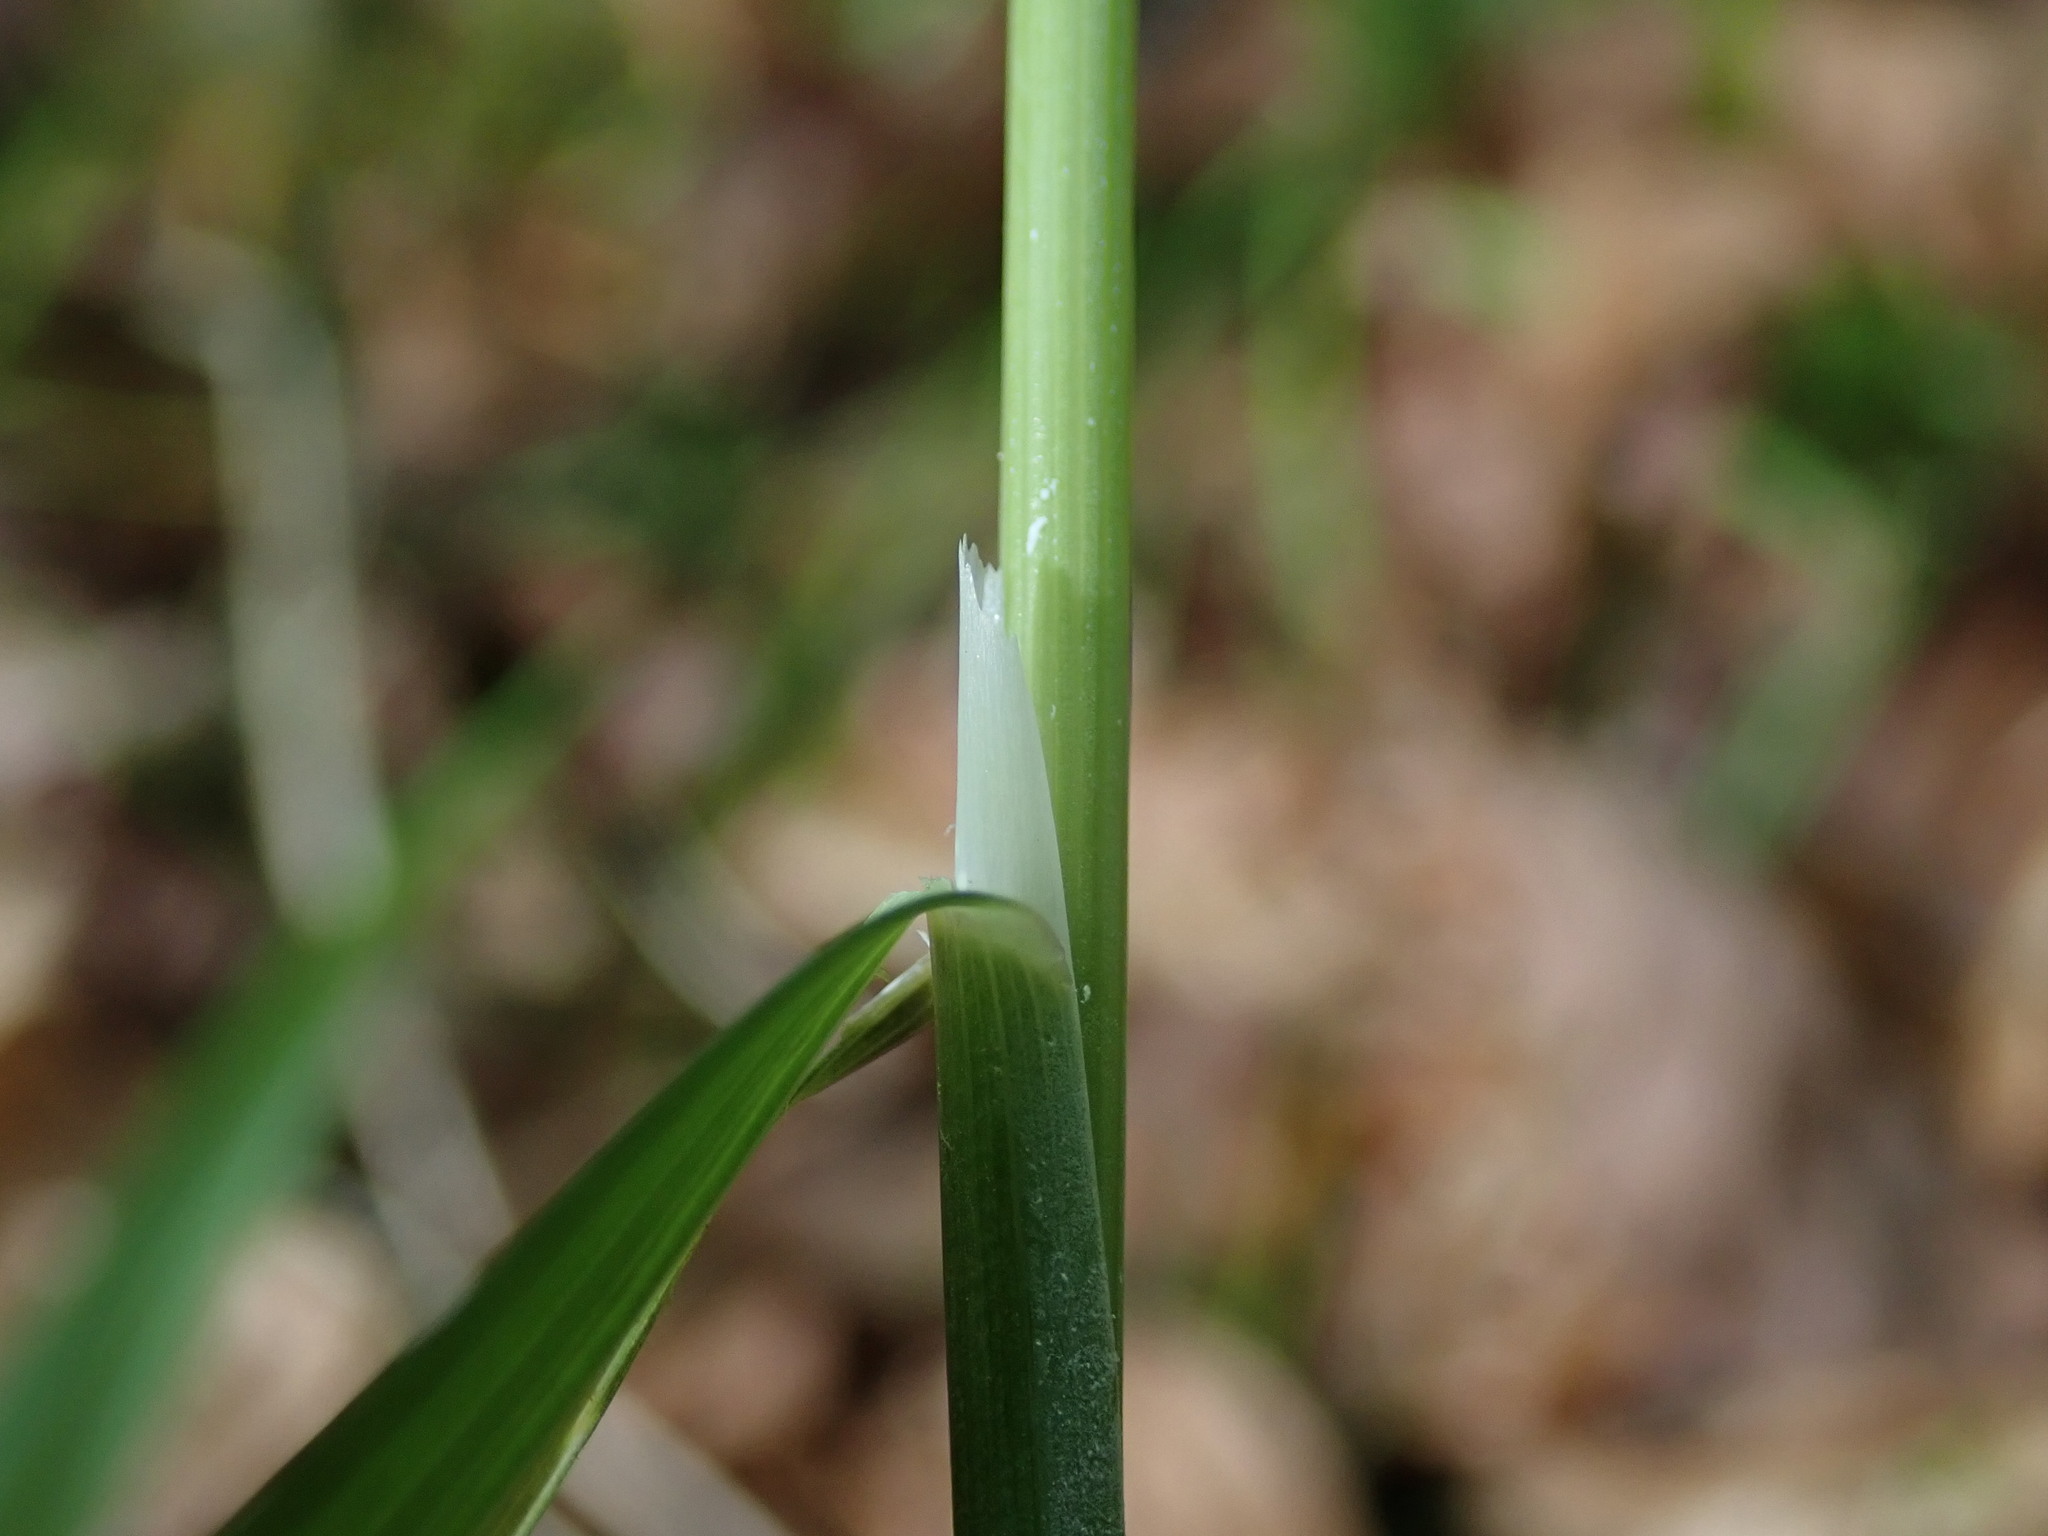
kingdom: Plantae
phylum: Tracheophyta
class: Liliopsida
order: Poales
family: Poaceae
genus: Milium
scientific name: Milium effusum
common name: Wood millet
